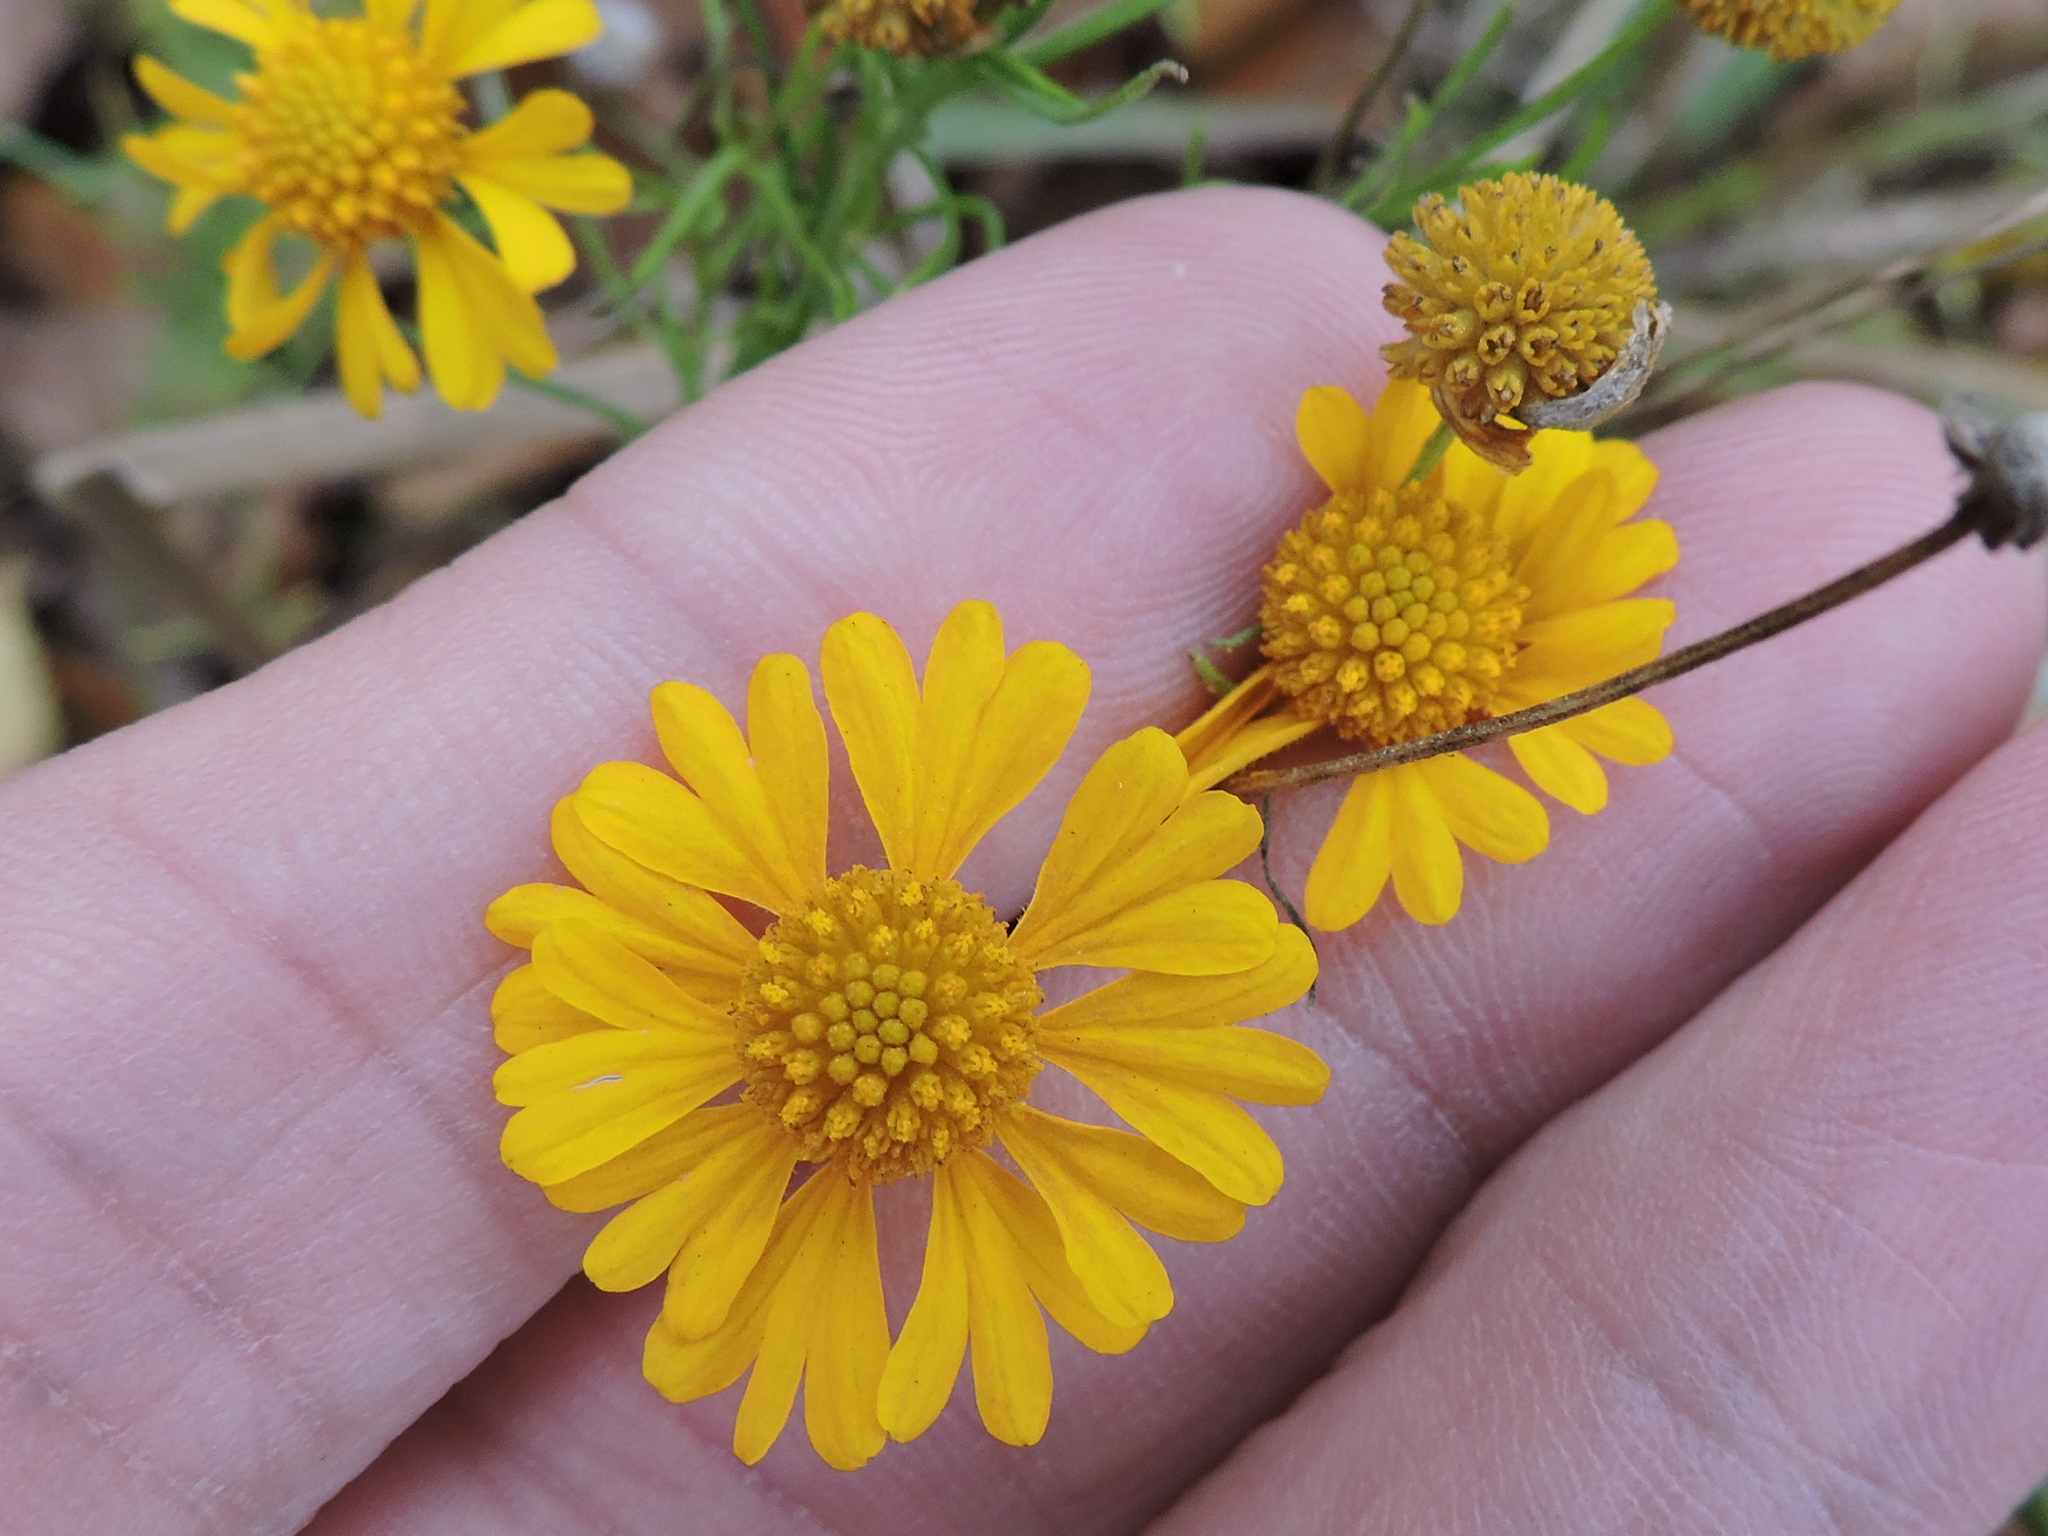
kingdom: Plantae
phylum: Tracheophyta
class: Magnoliopsida
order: Asterales
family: Asteraceae
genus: Helenium
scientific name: Helenium amarum
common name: Bitter sneezeweed
